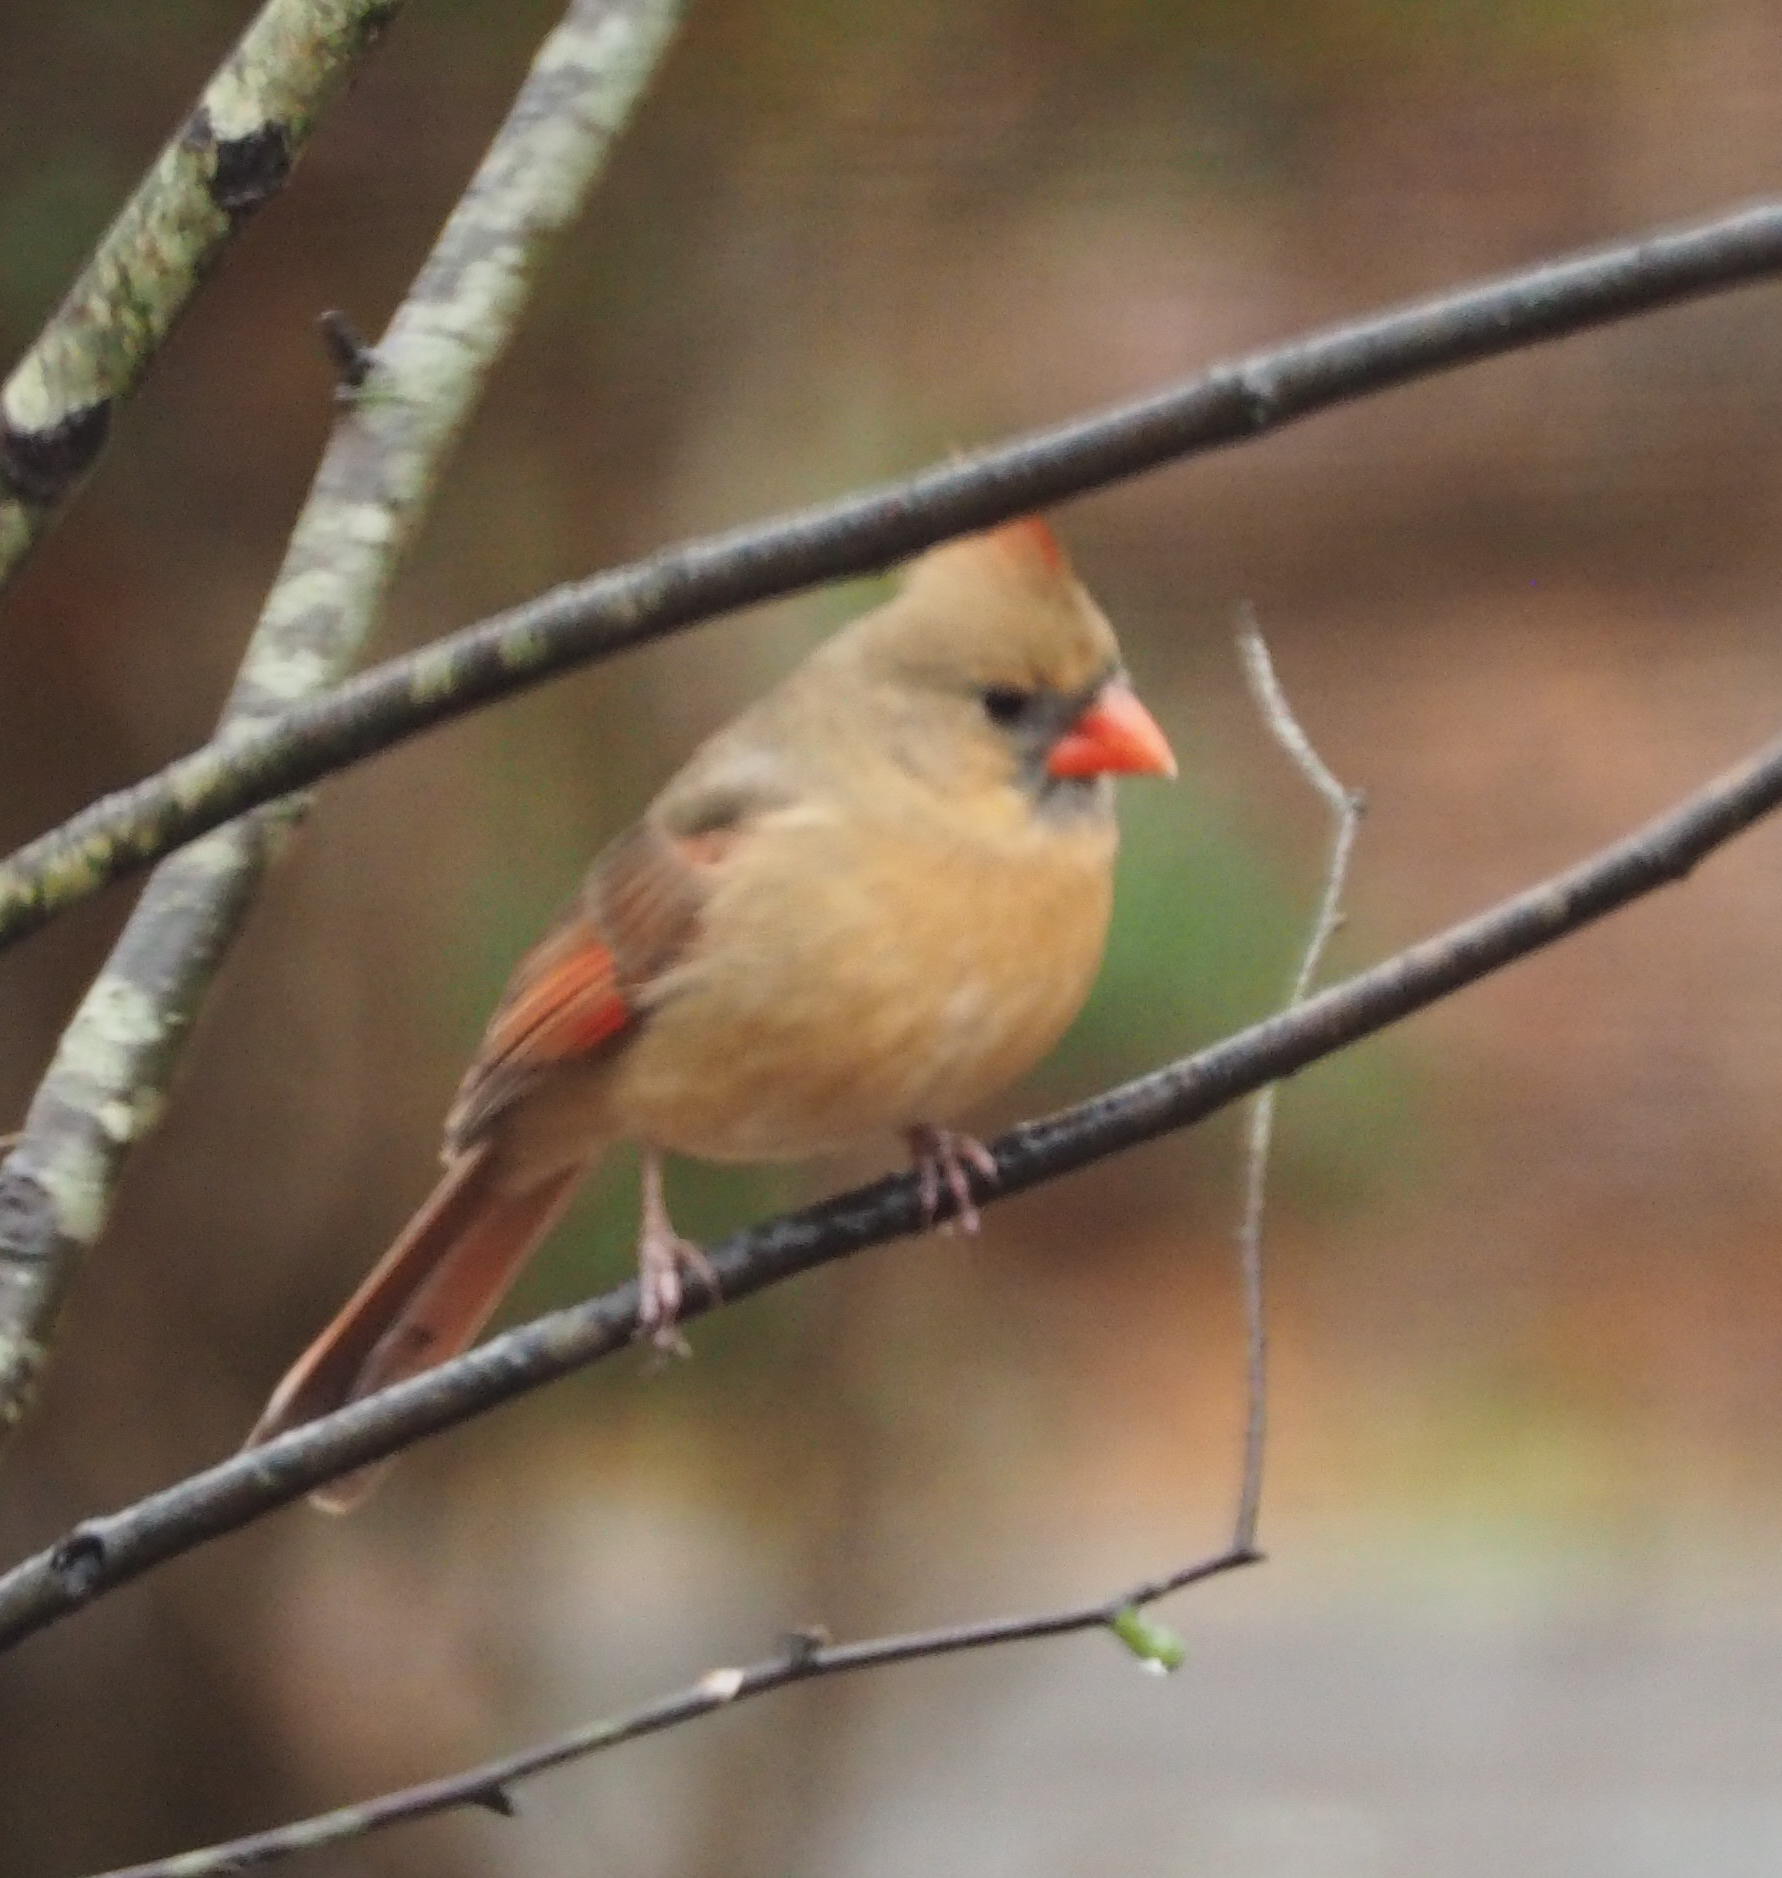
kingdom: Animalia
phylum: Chordata
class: Aves
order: Passeriformes
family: Cardinalidae
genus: Cardinalis
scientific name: Cardinalis cardinalis
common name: Northern cardinal
